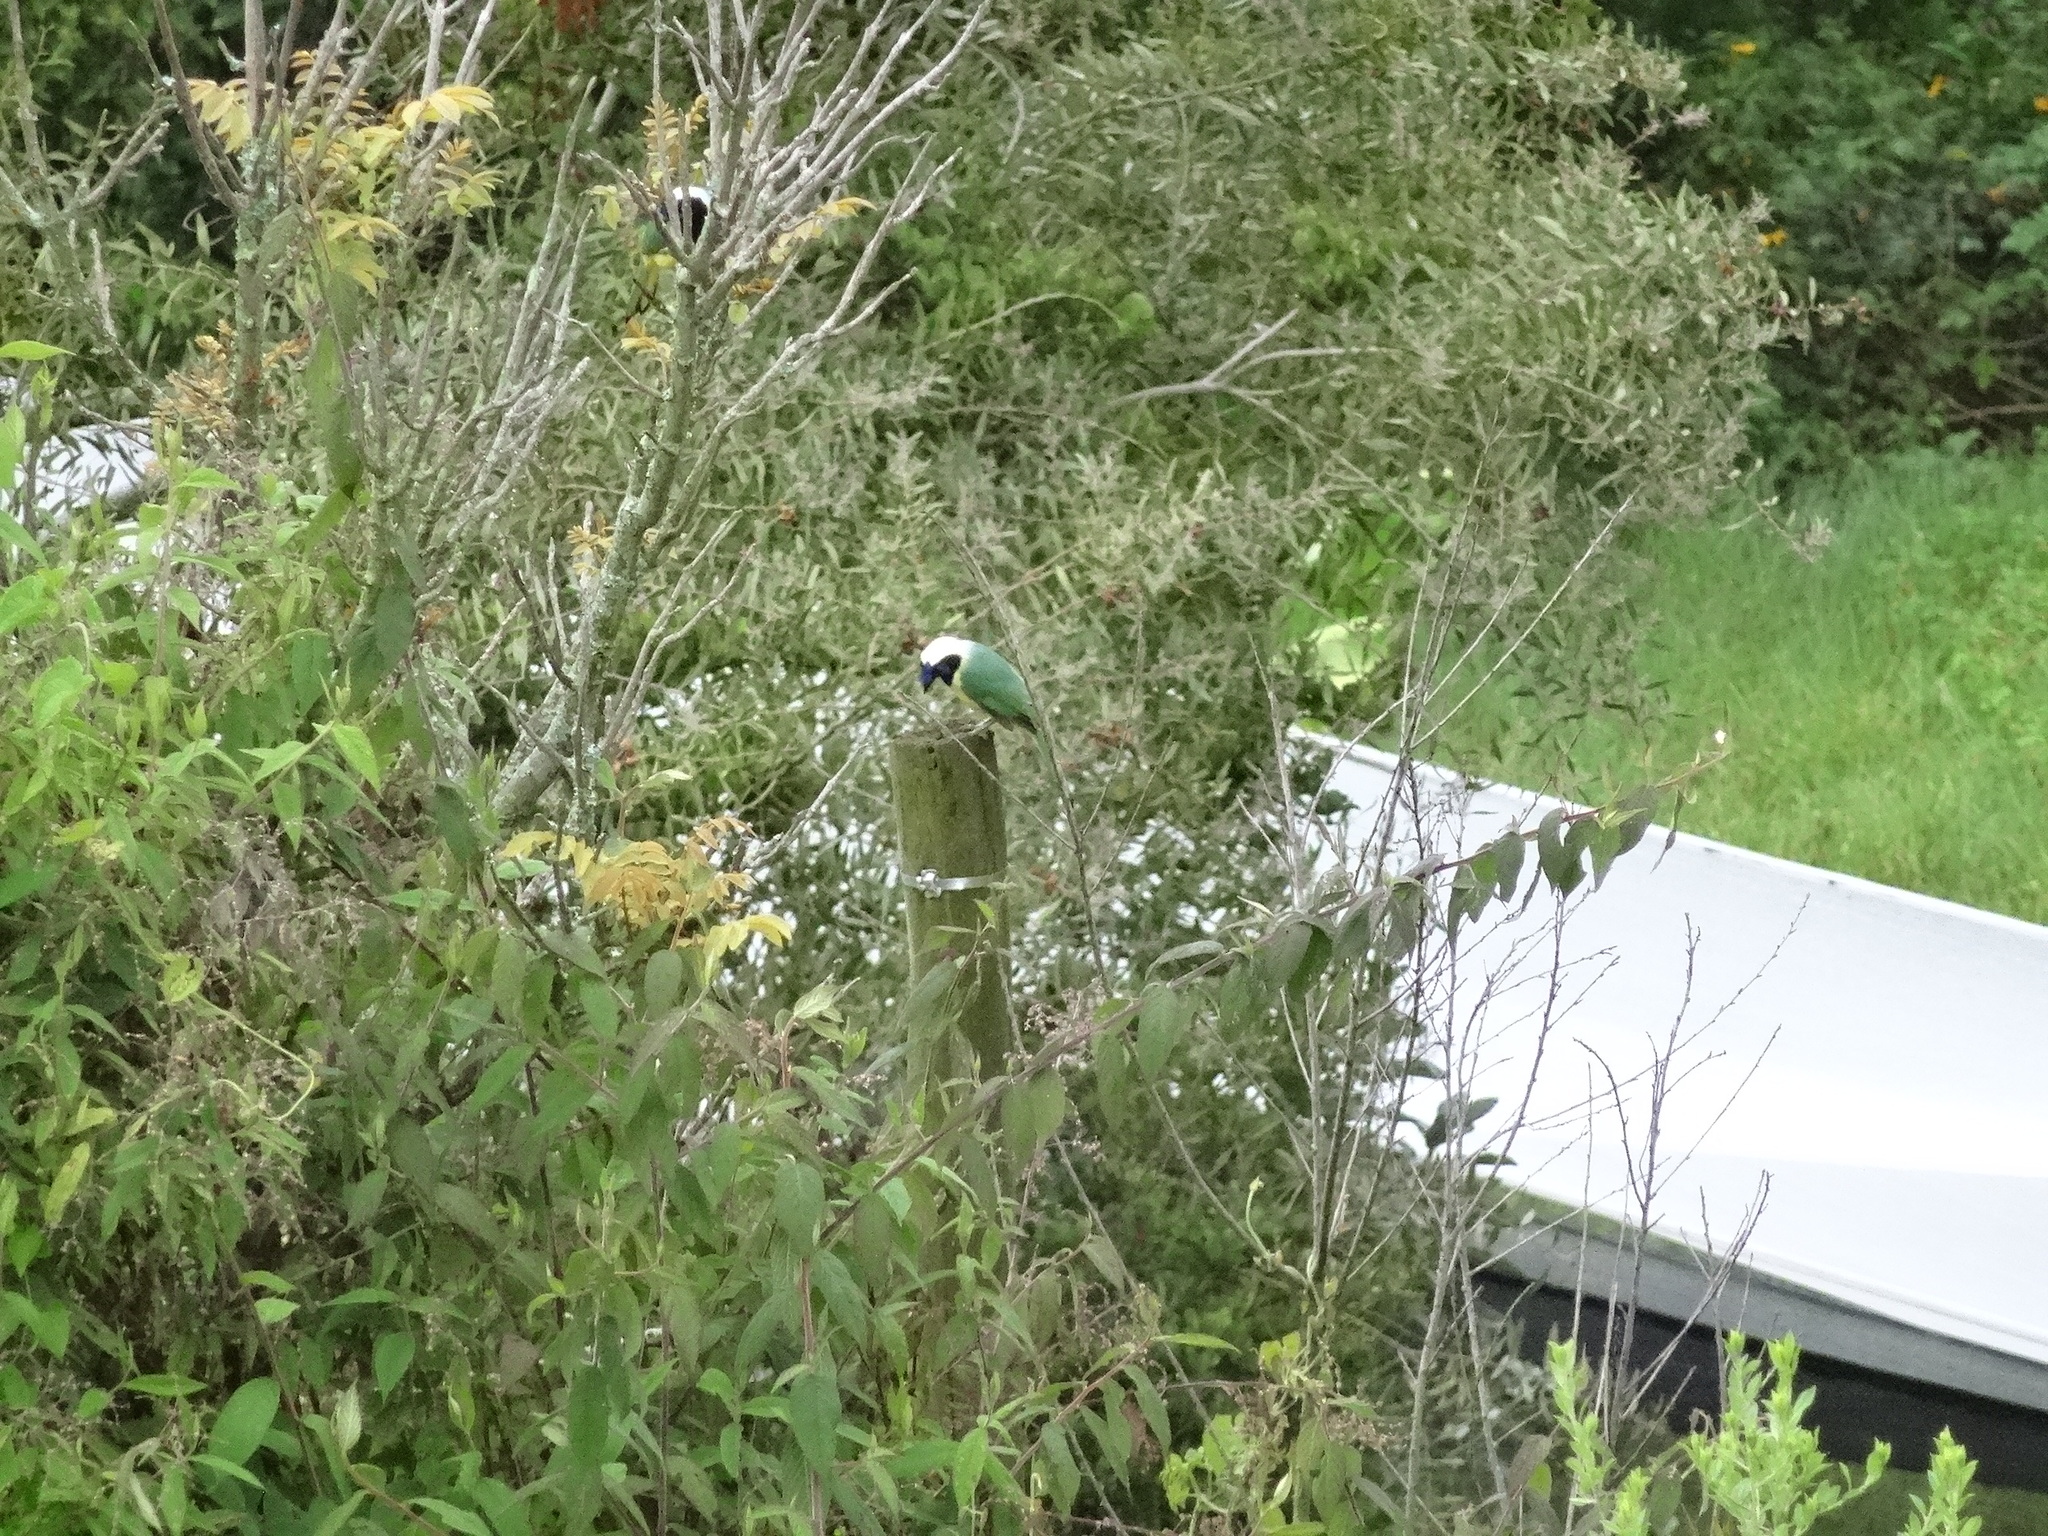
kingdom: Animalia
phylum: Chordata
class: Aves
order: Passeriformes
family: Corvidae
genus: Cyanocorax
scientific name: Cyanocorax yncas
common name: Green jay
